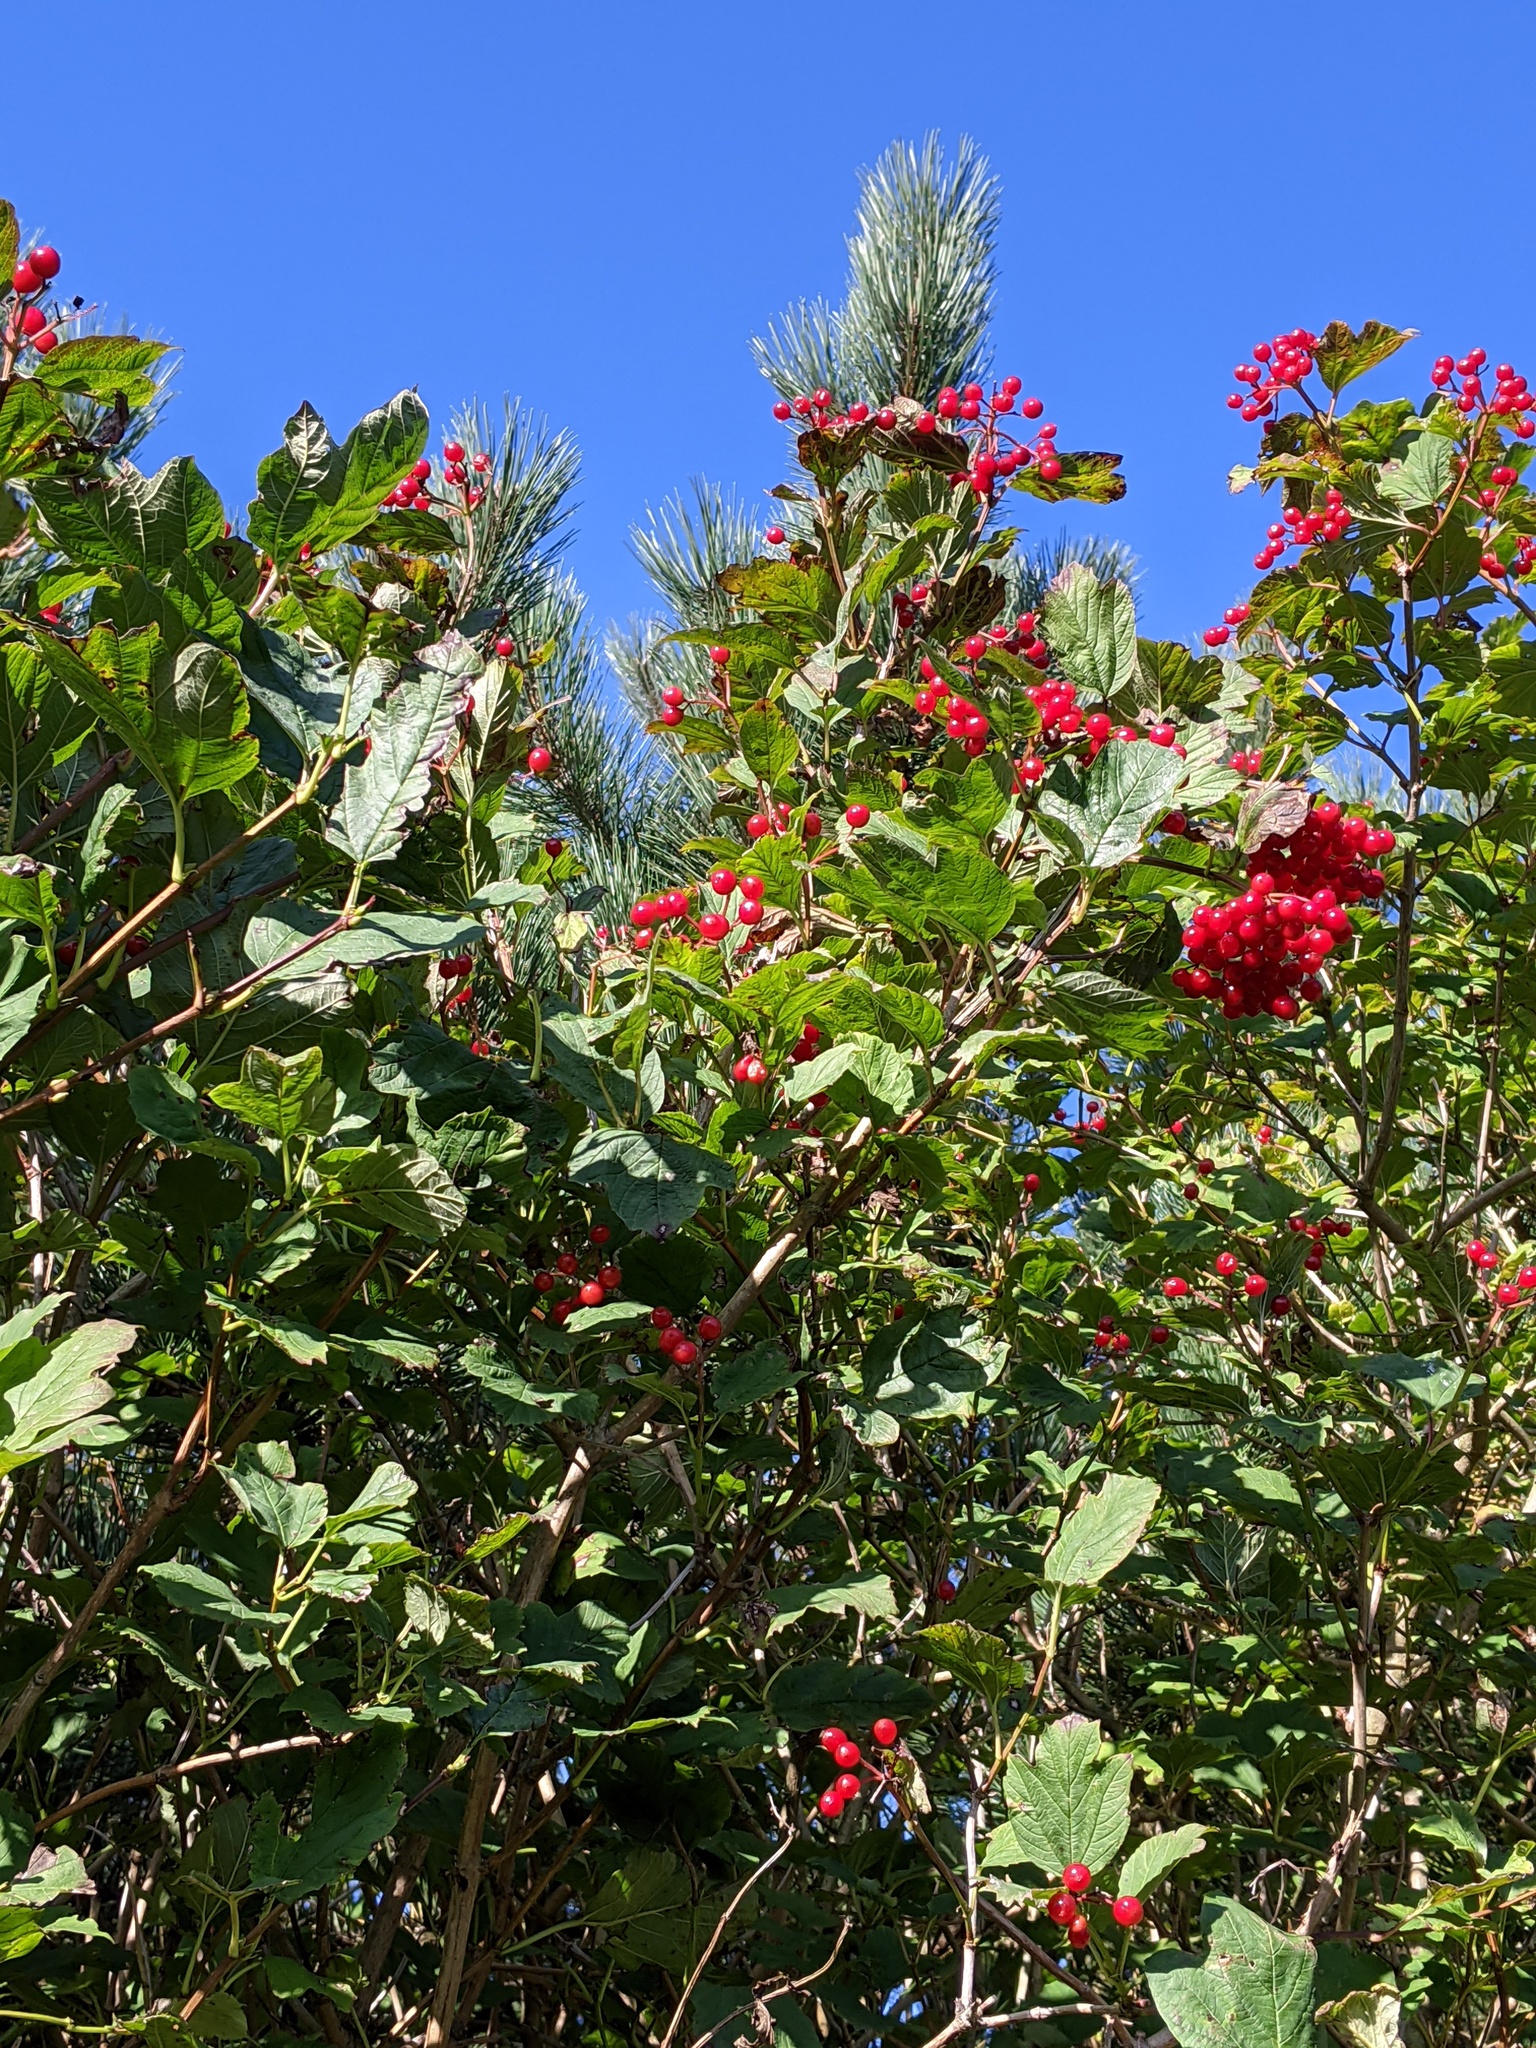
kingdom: Plantae
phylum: Tracheophyta
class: Magnoliopsida
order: Dipsacales
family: Viburnaceae
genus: Viburnum
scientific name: Viburnum opulus
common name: Guelder-rose
